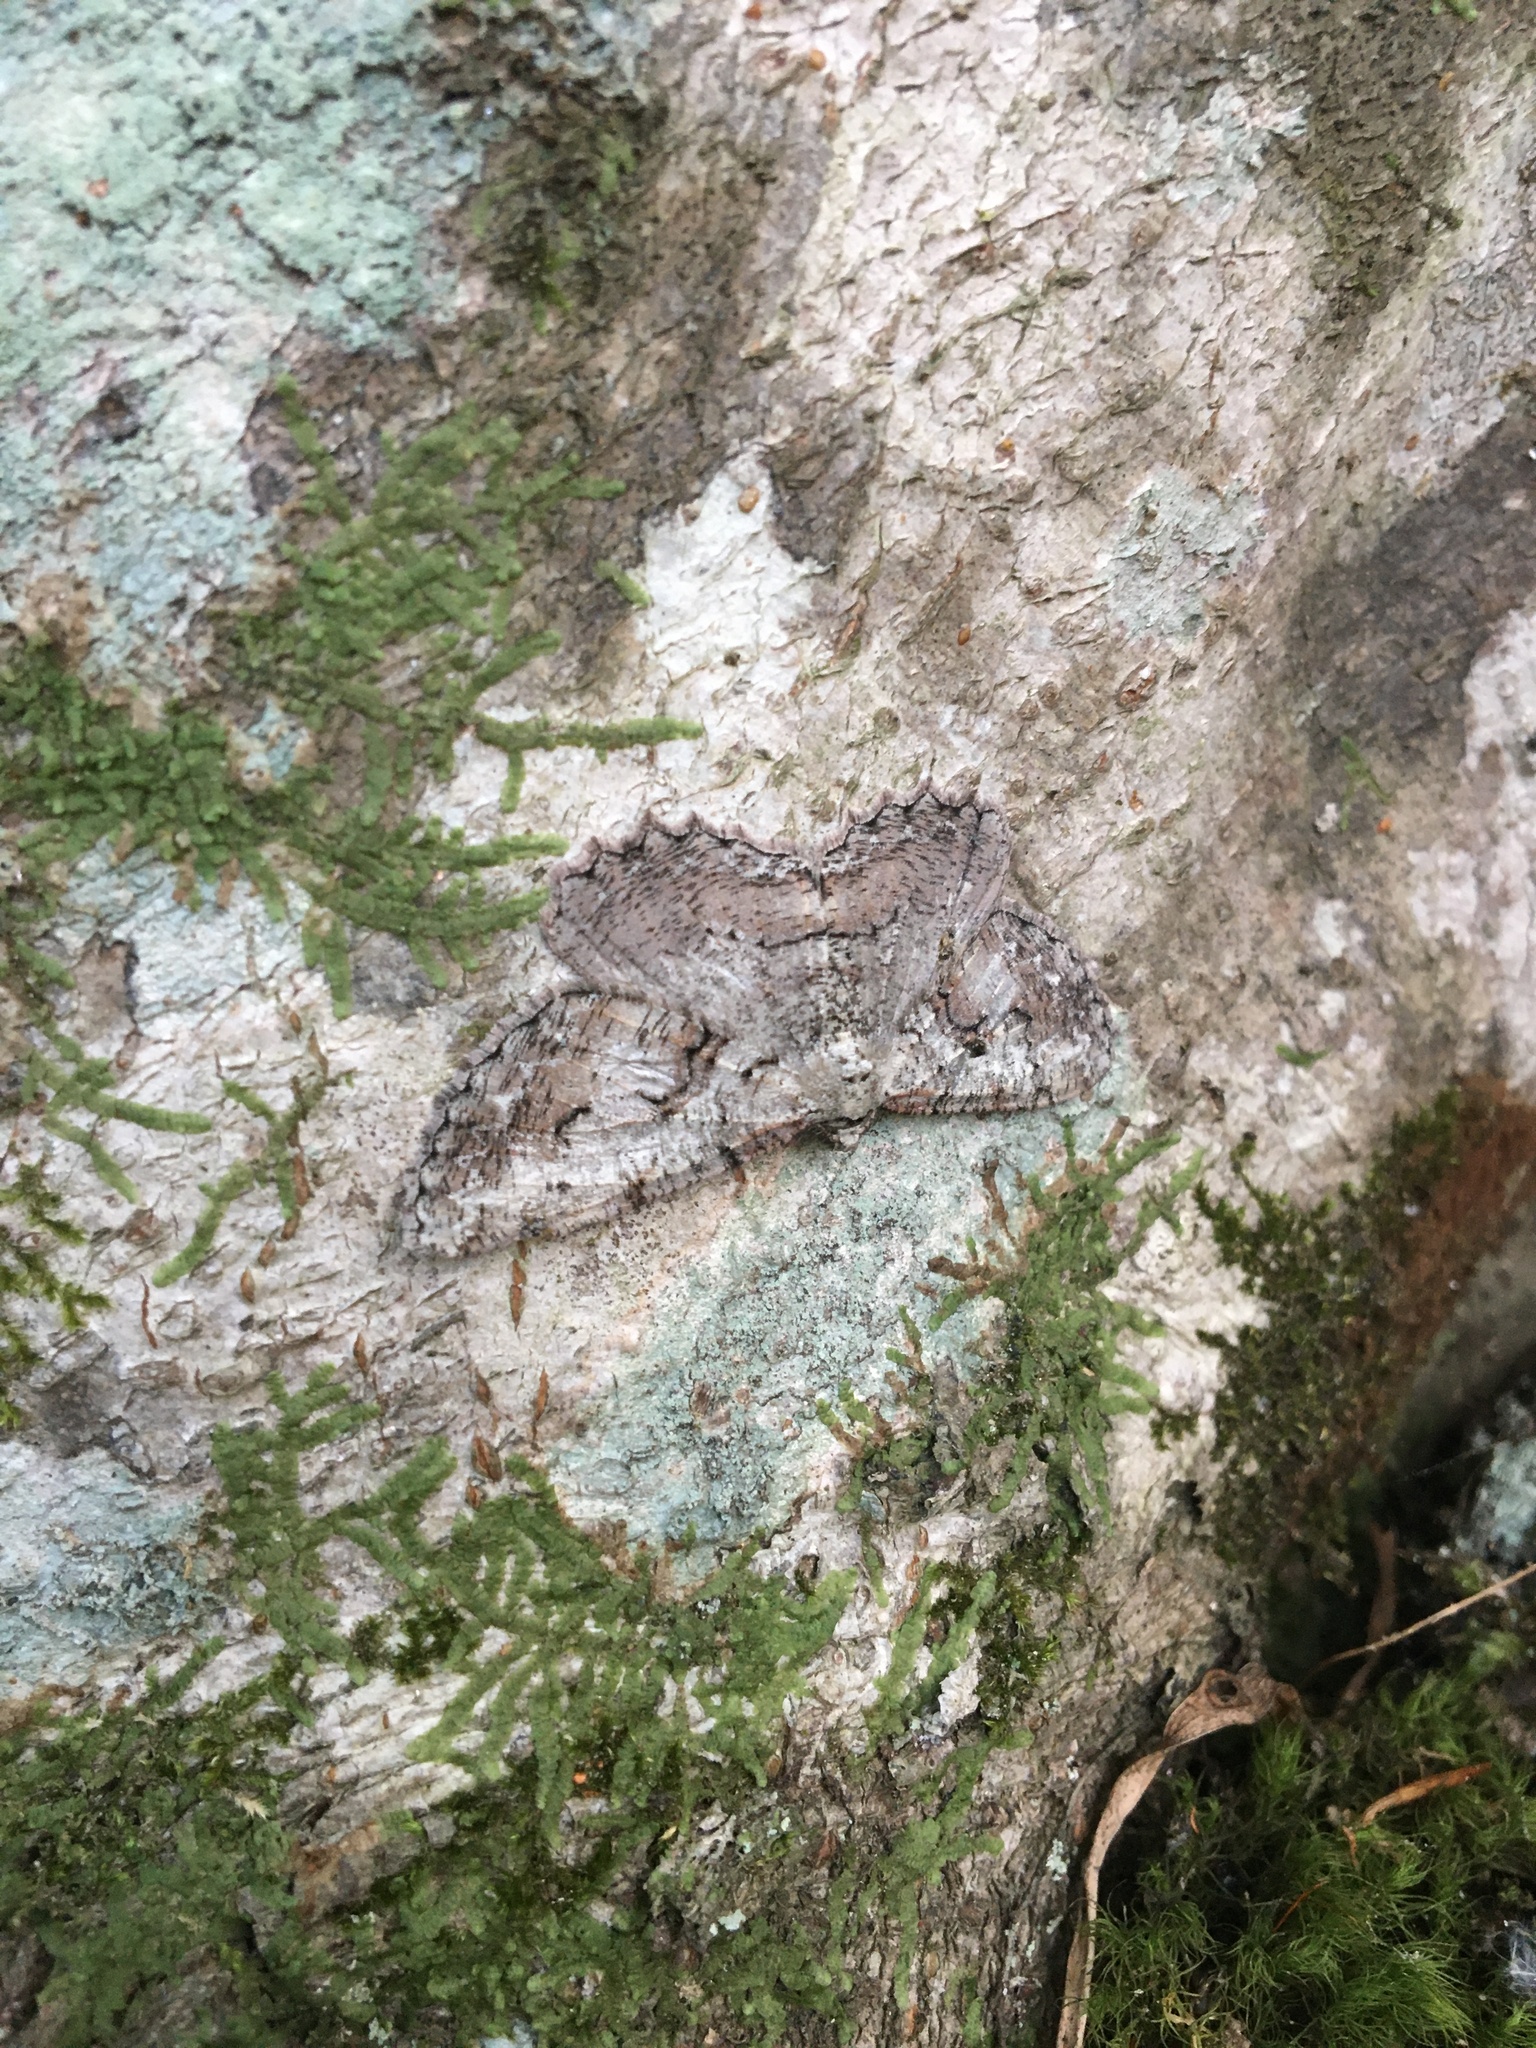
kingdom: Animalia
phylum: Arthropoda
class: Insecta
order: Lepidoptera
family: Geometridae
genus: Cymatophora
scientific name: Cymatophora approximaria
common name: Giant gray moth
